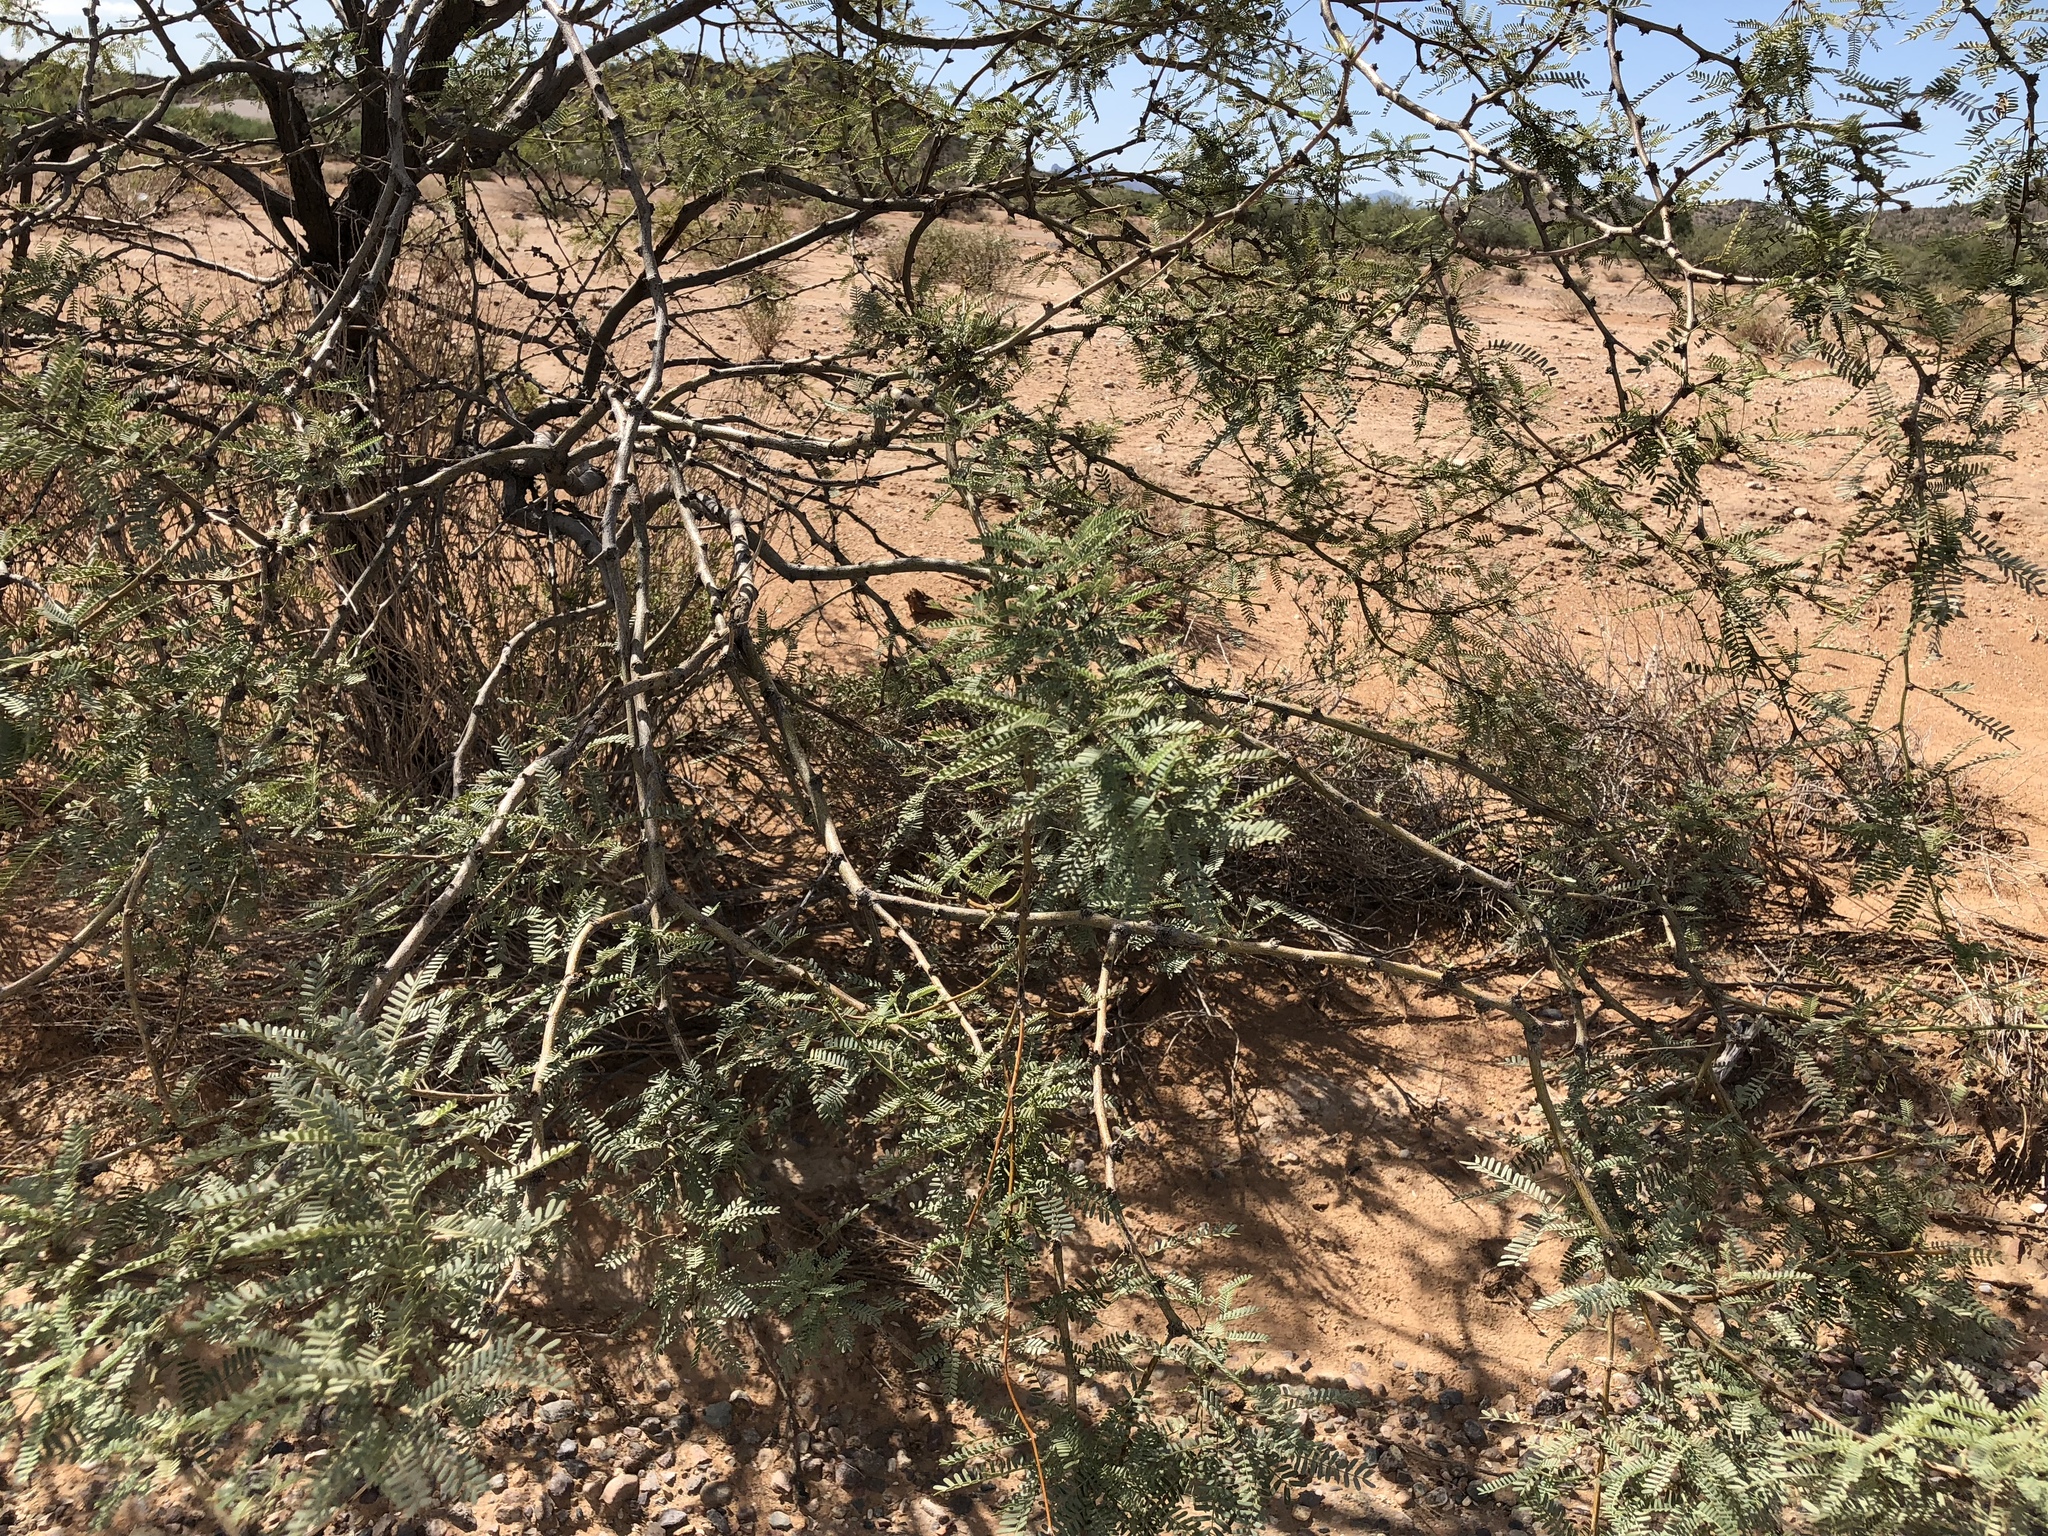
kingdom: Plantae
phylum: Tracheophyta
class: Magnoliopsida
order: Fabales
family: Fabaceae
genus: Prosopis
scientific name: Prosopis velutina
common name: Velvet mesquite
